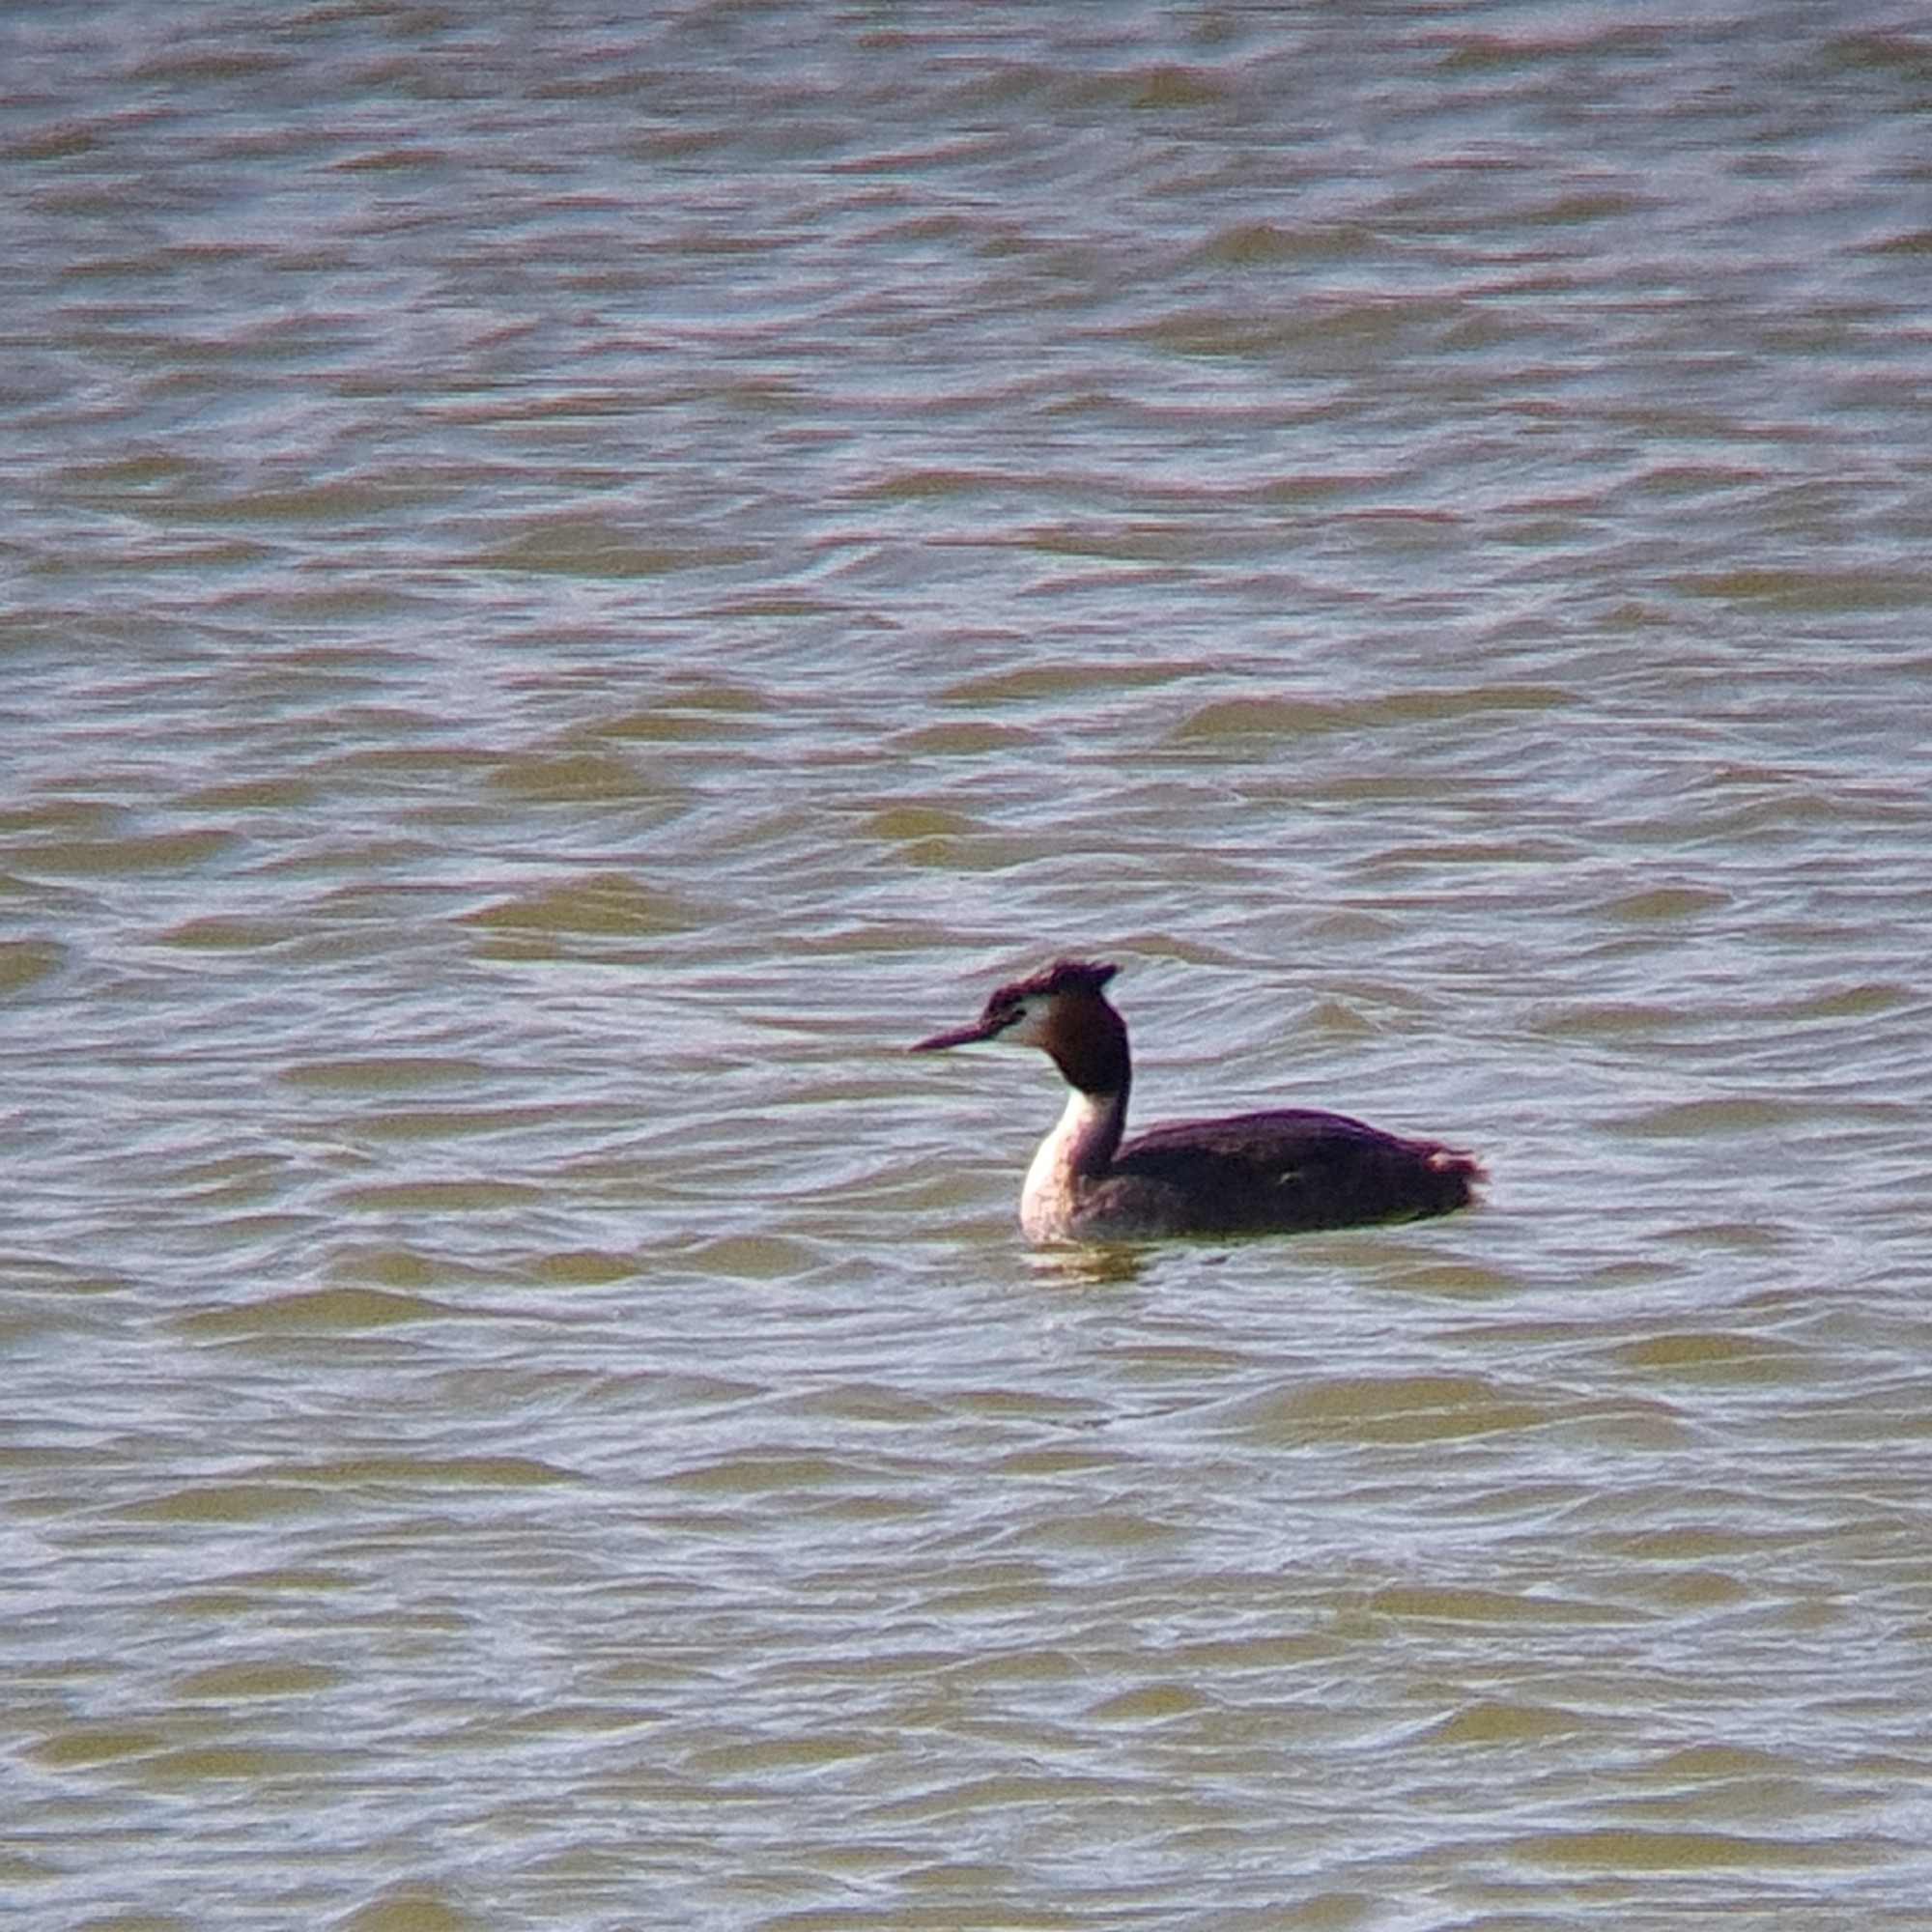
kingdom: Animalia
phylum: Chordata
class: Aves
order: Podicipediformes
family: Podicipedidae
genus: Podiceps
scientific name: Podiceps cristatus
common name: Great crested grebe
